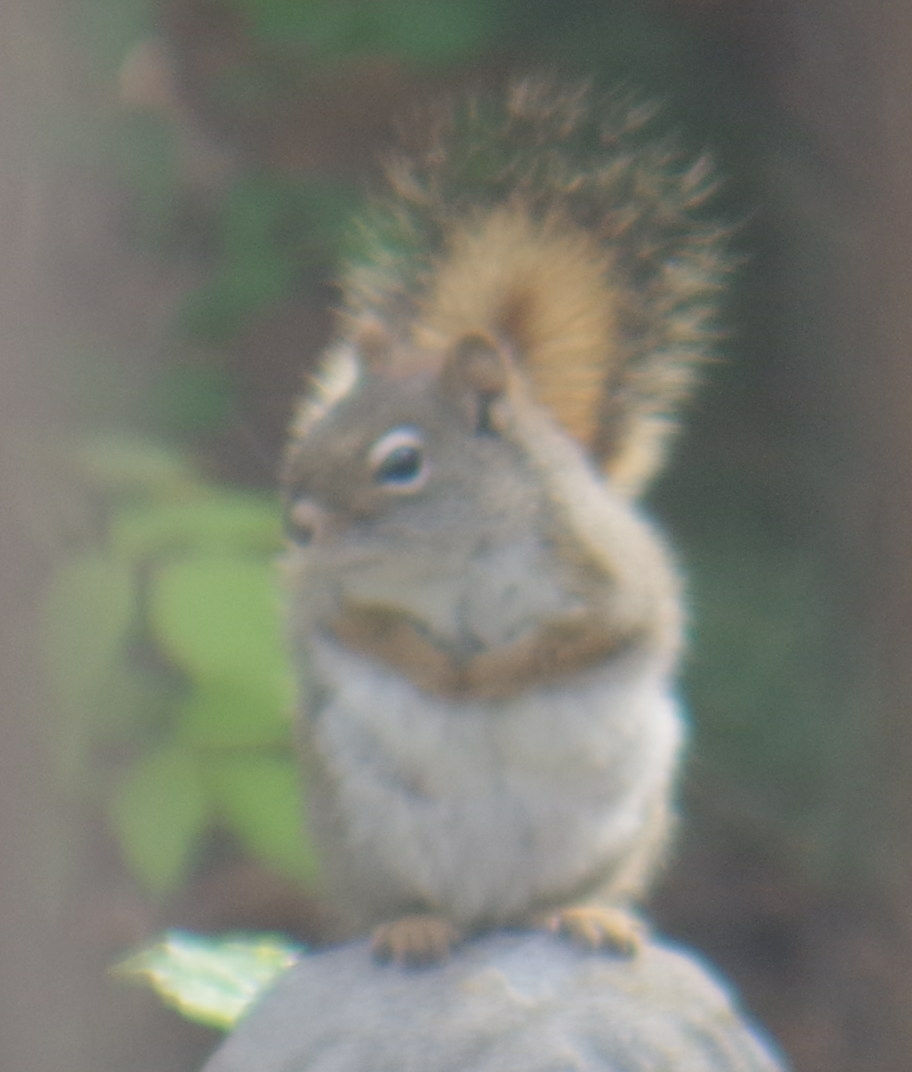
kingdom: Animalia
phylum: Chordata
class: Mammalia
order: Rodentia
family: Sciuridae
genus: Tamiasciurus
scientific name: Tamiasciurus hudsonicus
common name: Red squirrel
